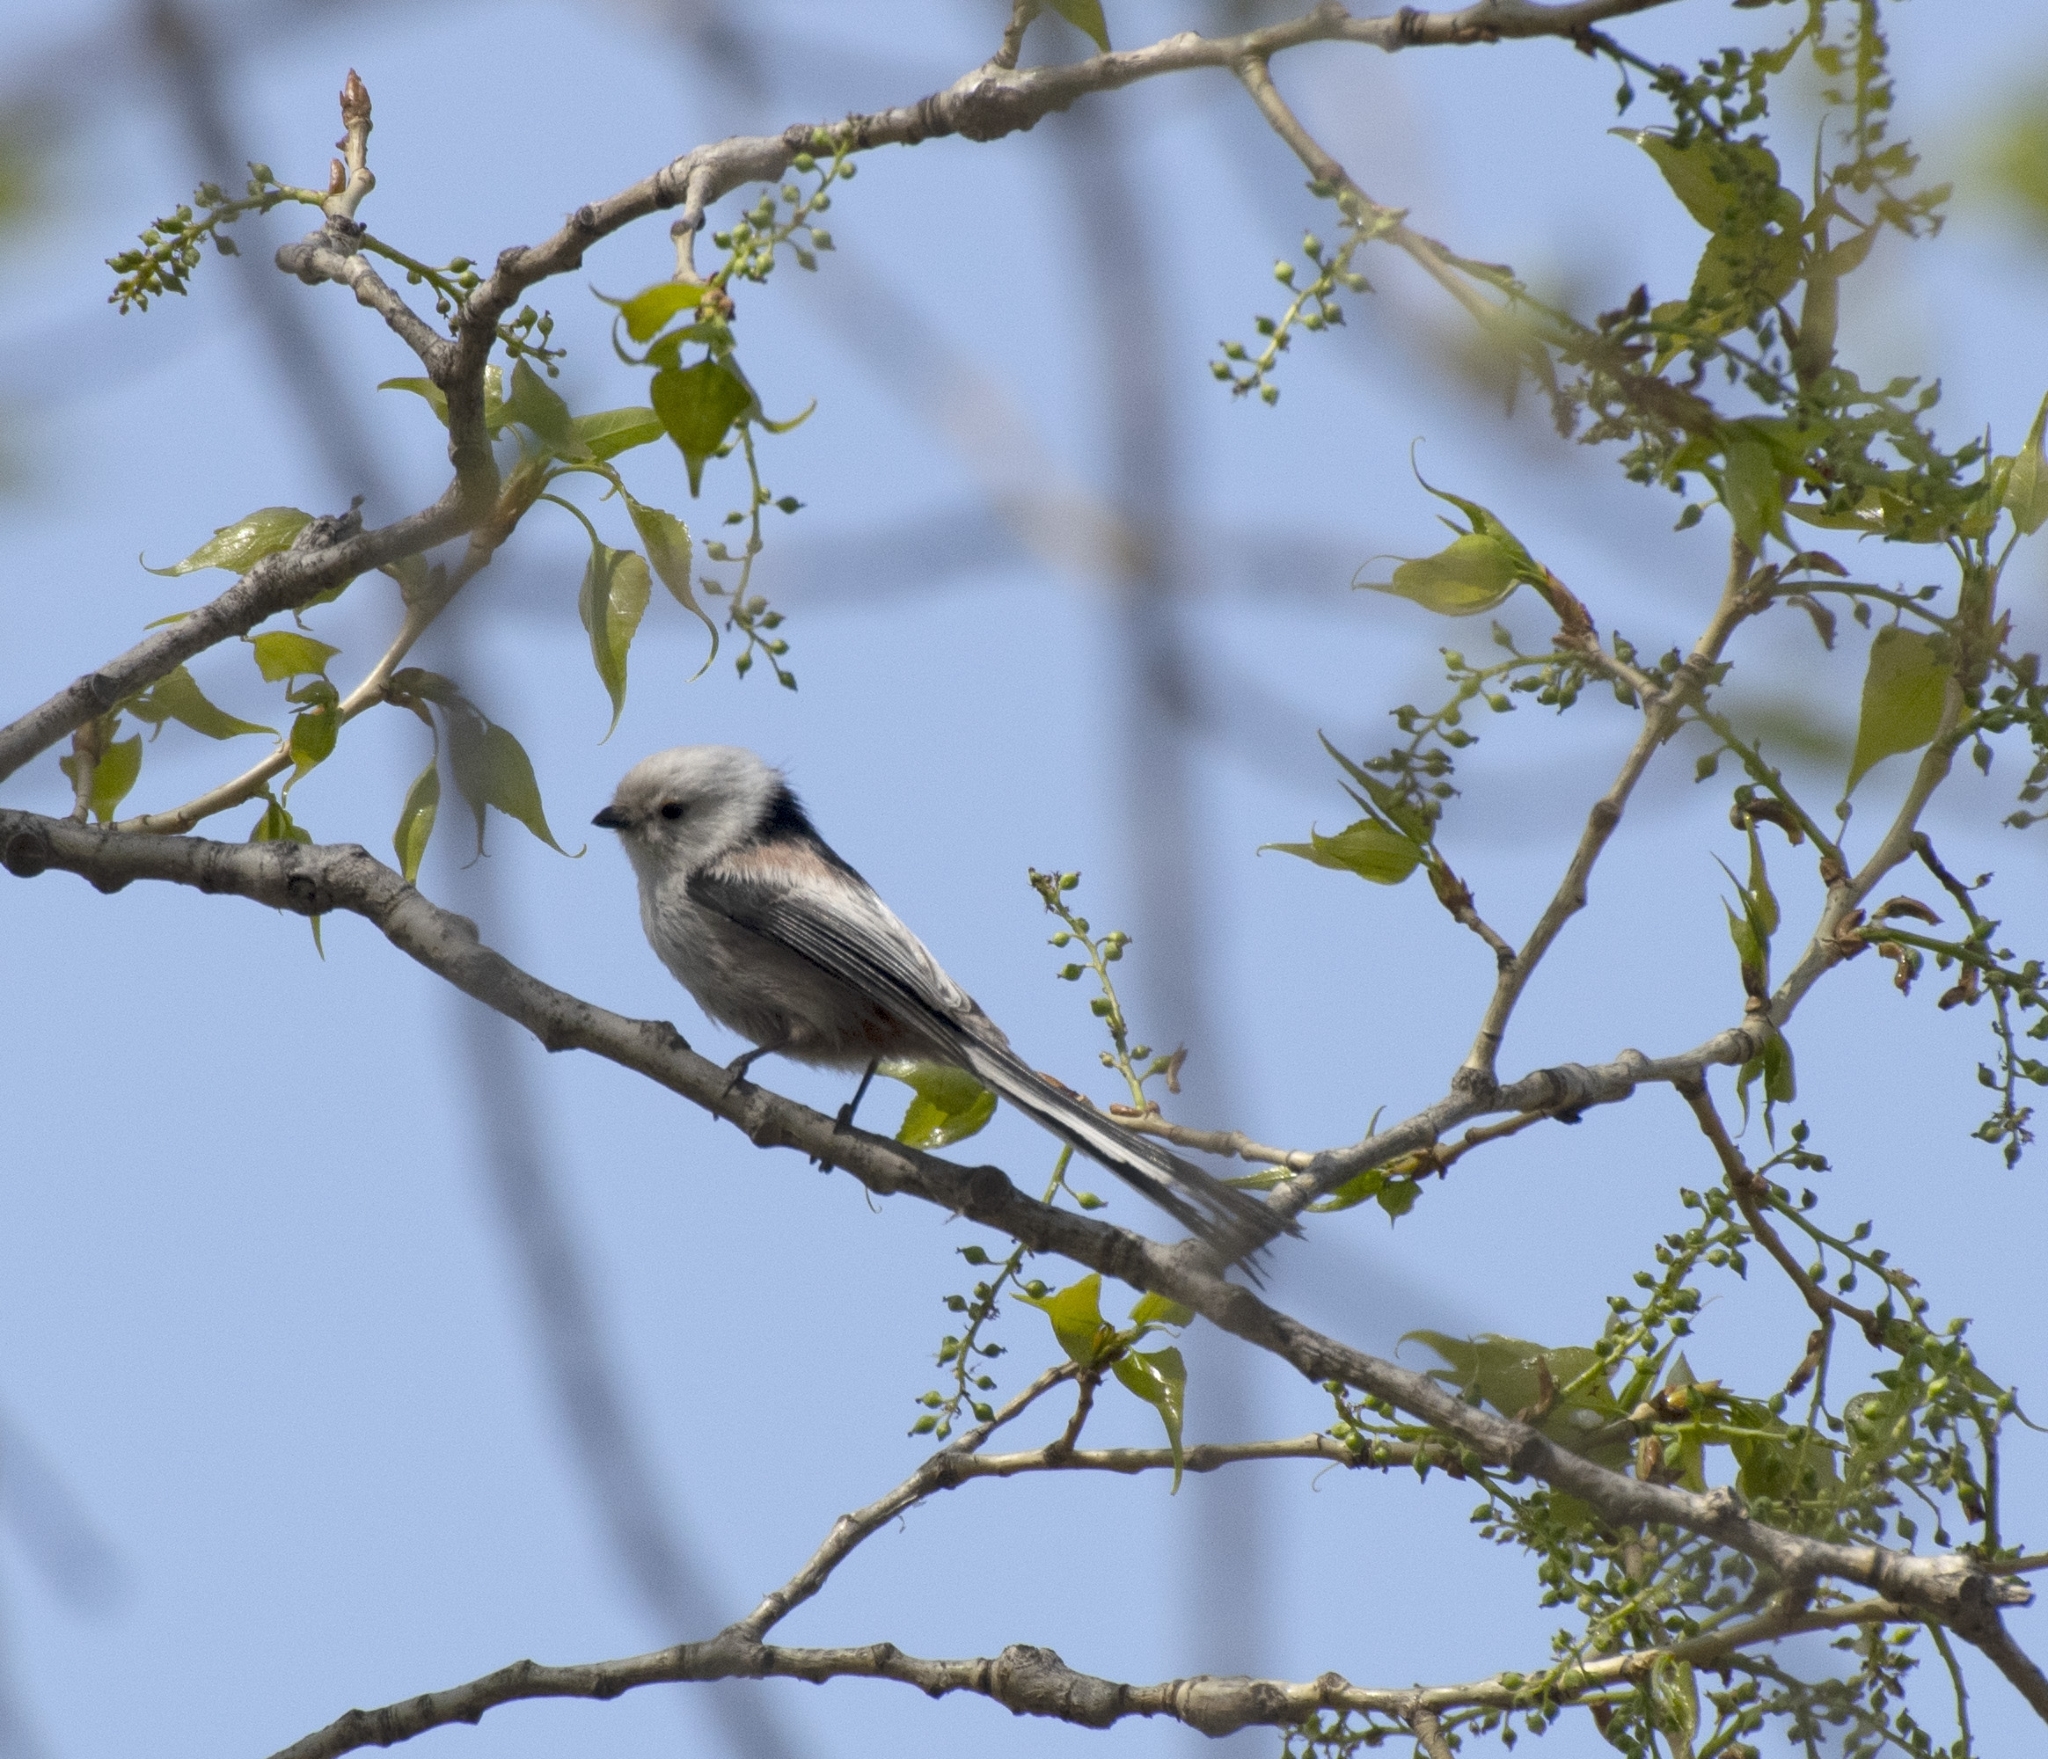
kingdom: Animalia
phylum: Chordata
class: Aves
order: Passeriformes
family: Aegithalidae
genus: Aegithalos
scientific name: Aegithalos caudatus
